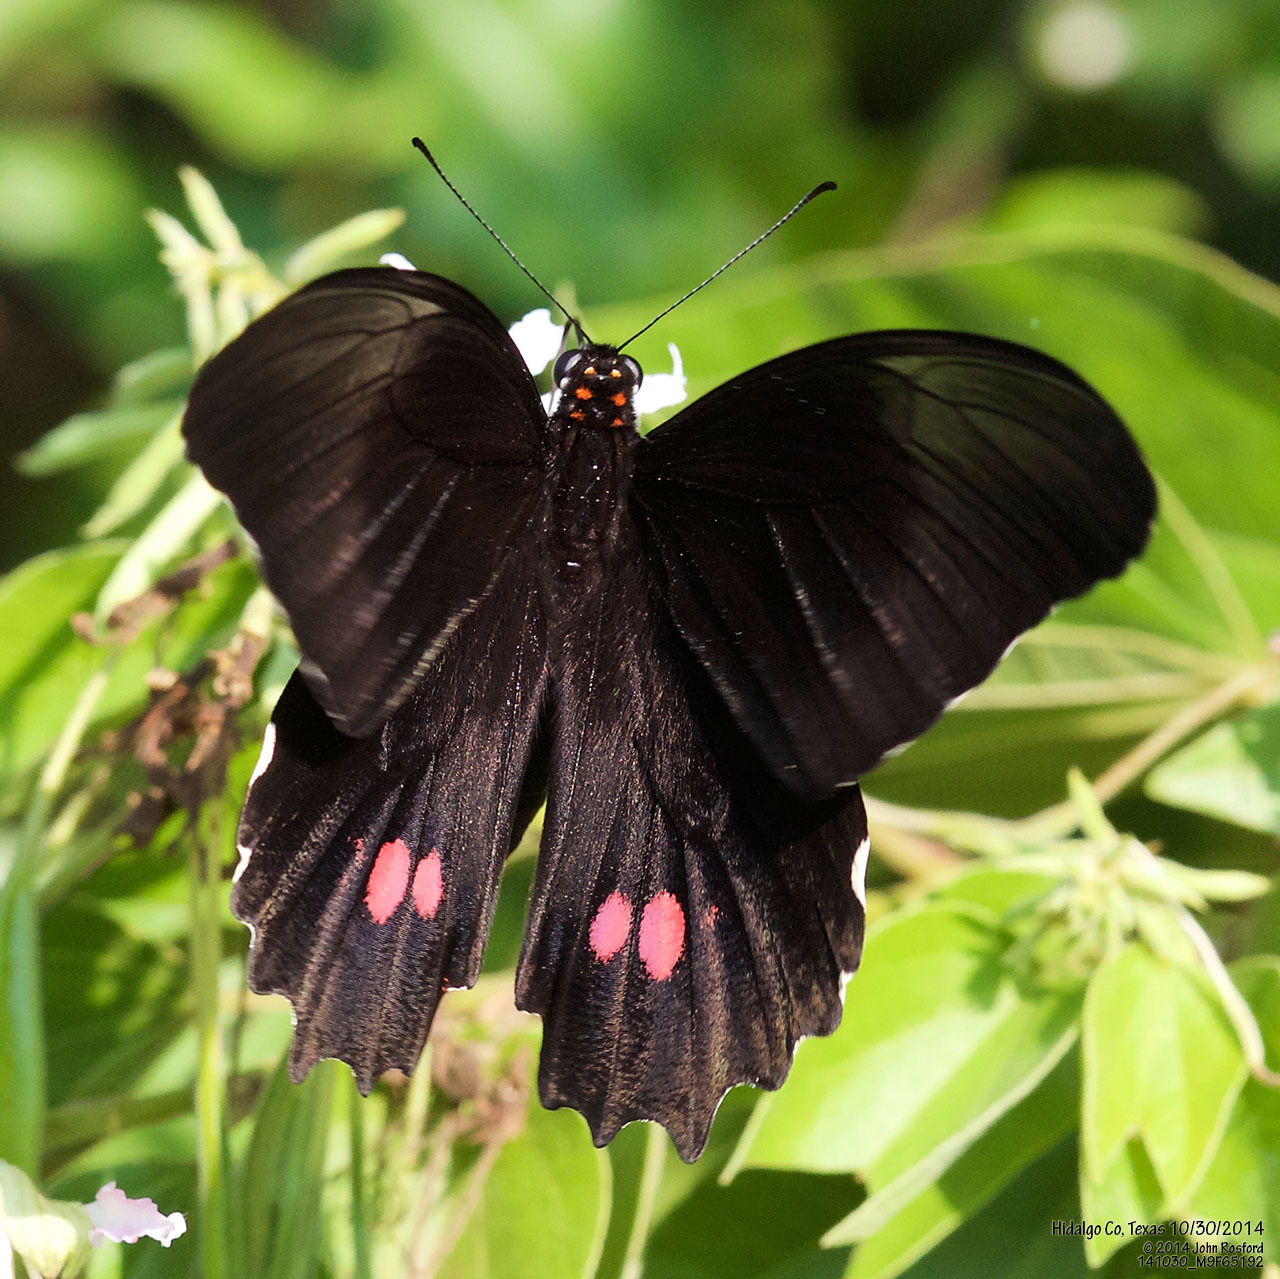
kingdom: Animalia
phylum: Arthropoda
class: Insecta
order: Lepidoptera
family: Papilionidae
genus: Papilio
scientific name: Papilio anchisiades
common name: Idaes swallowtail
